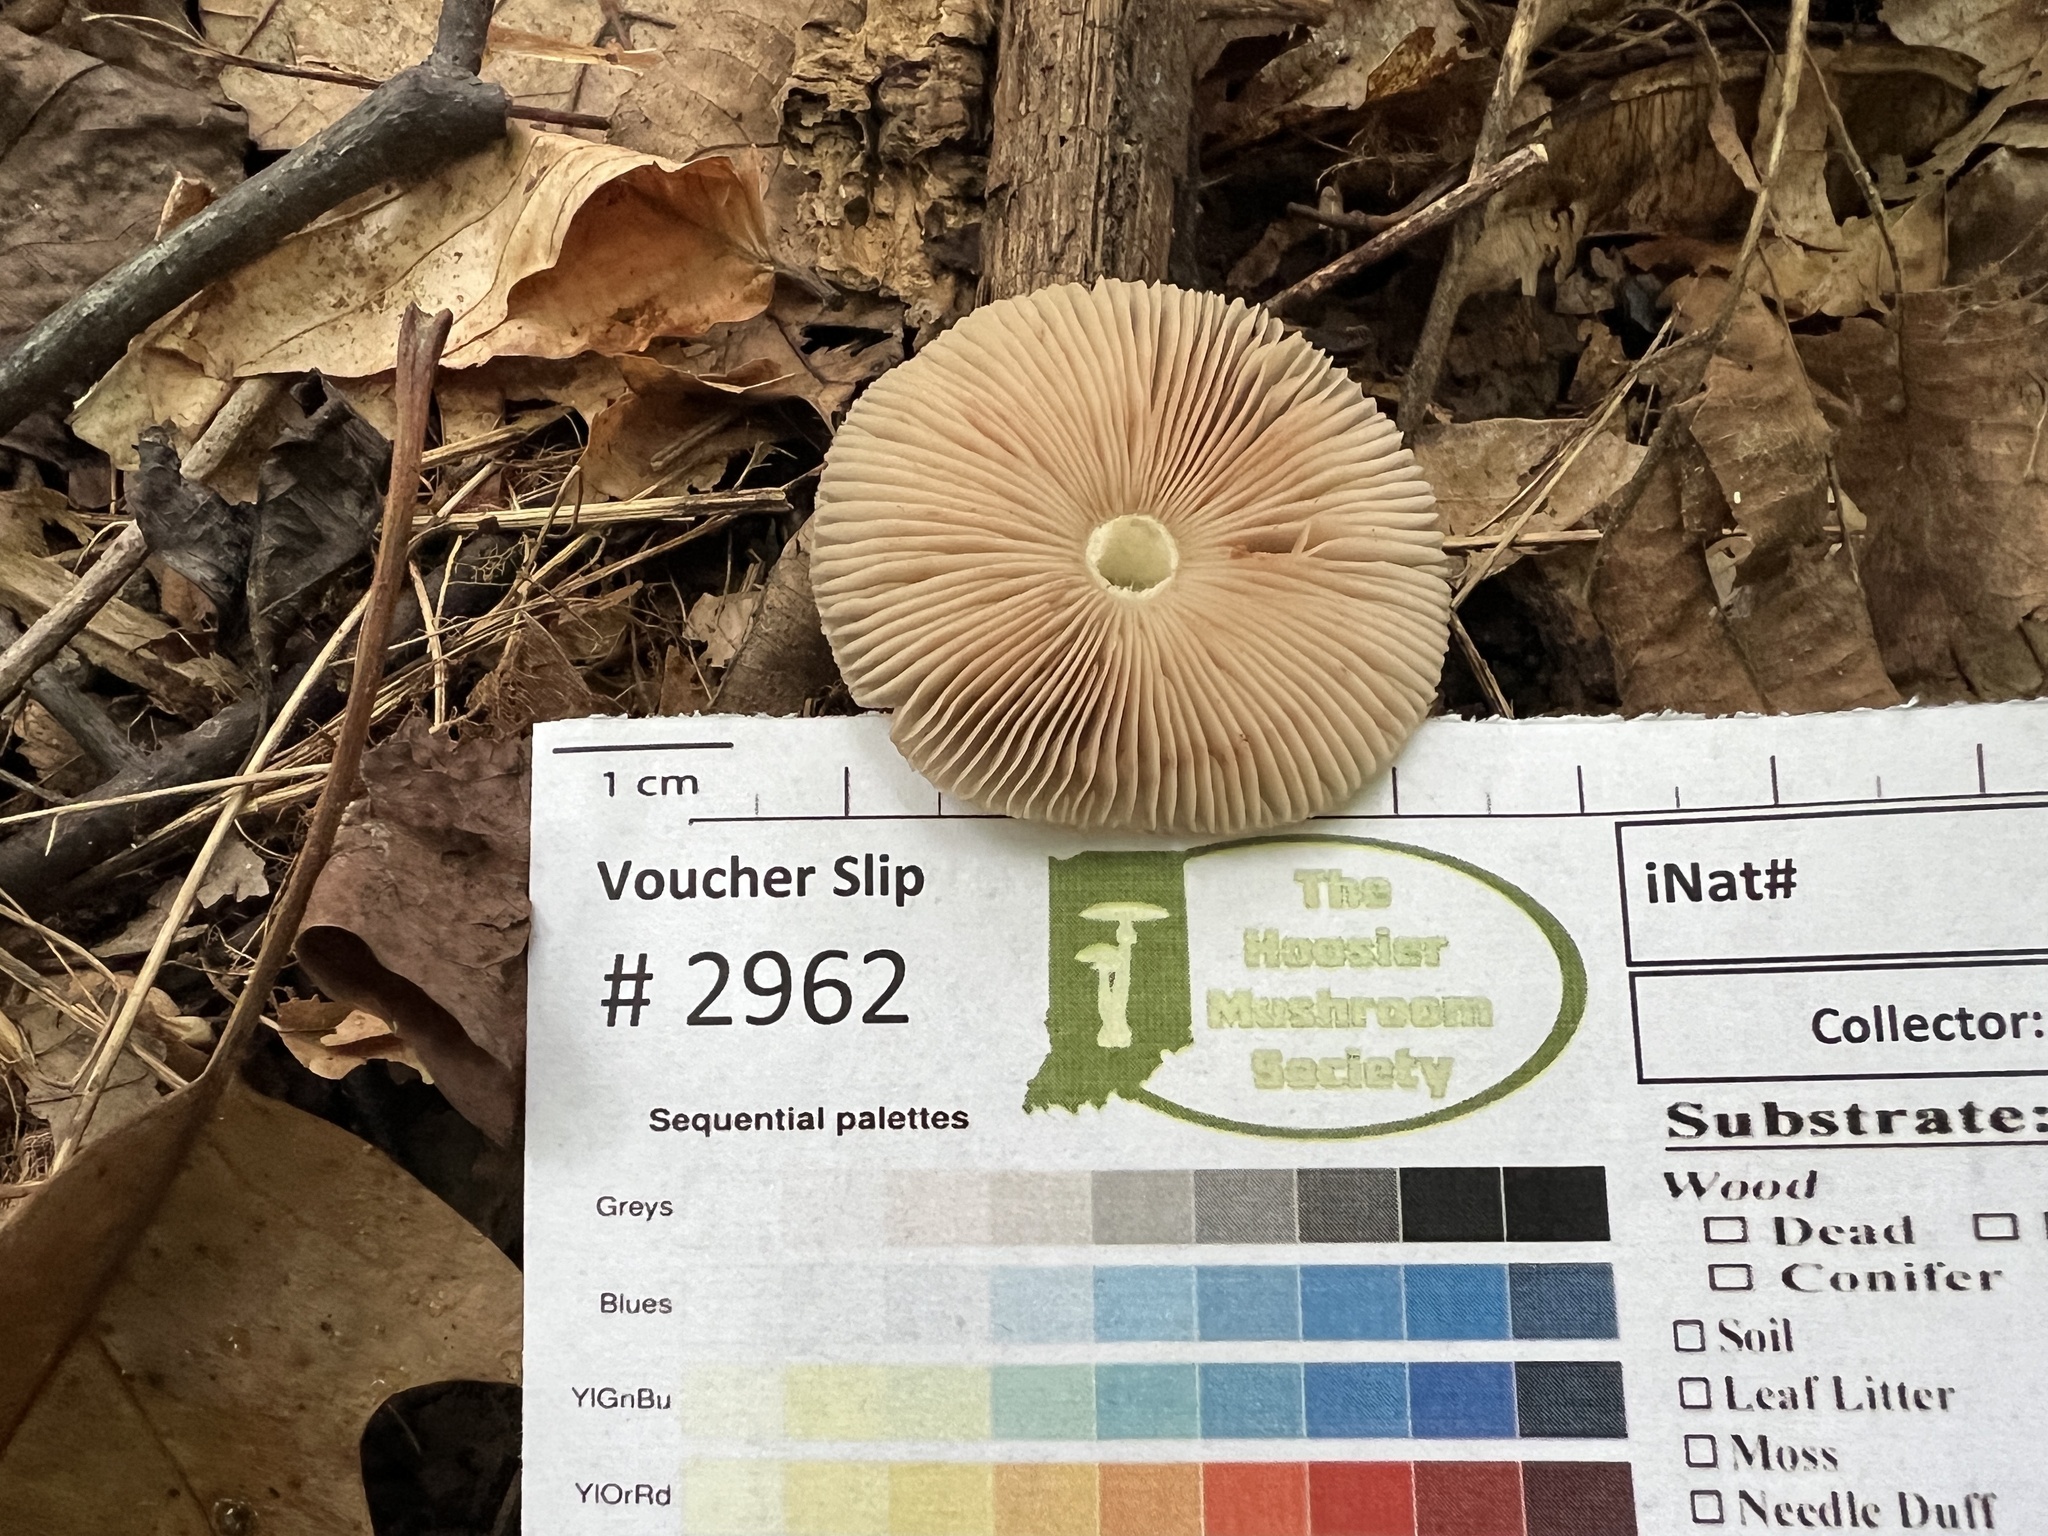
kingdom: Fungi
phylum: Basidiomycota
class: Agaricomycetes
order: Agaricales
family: Pluteaceae
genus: Pluteus
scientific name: Pluteus deceptivus
